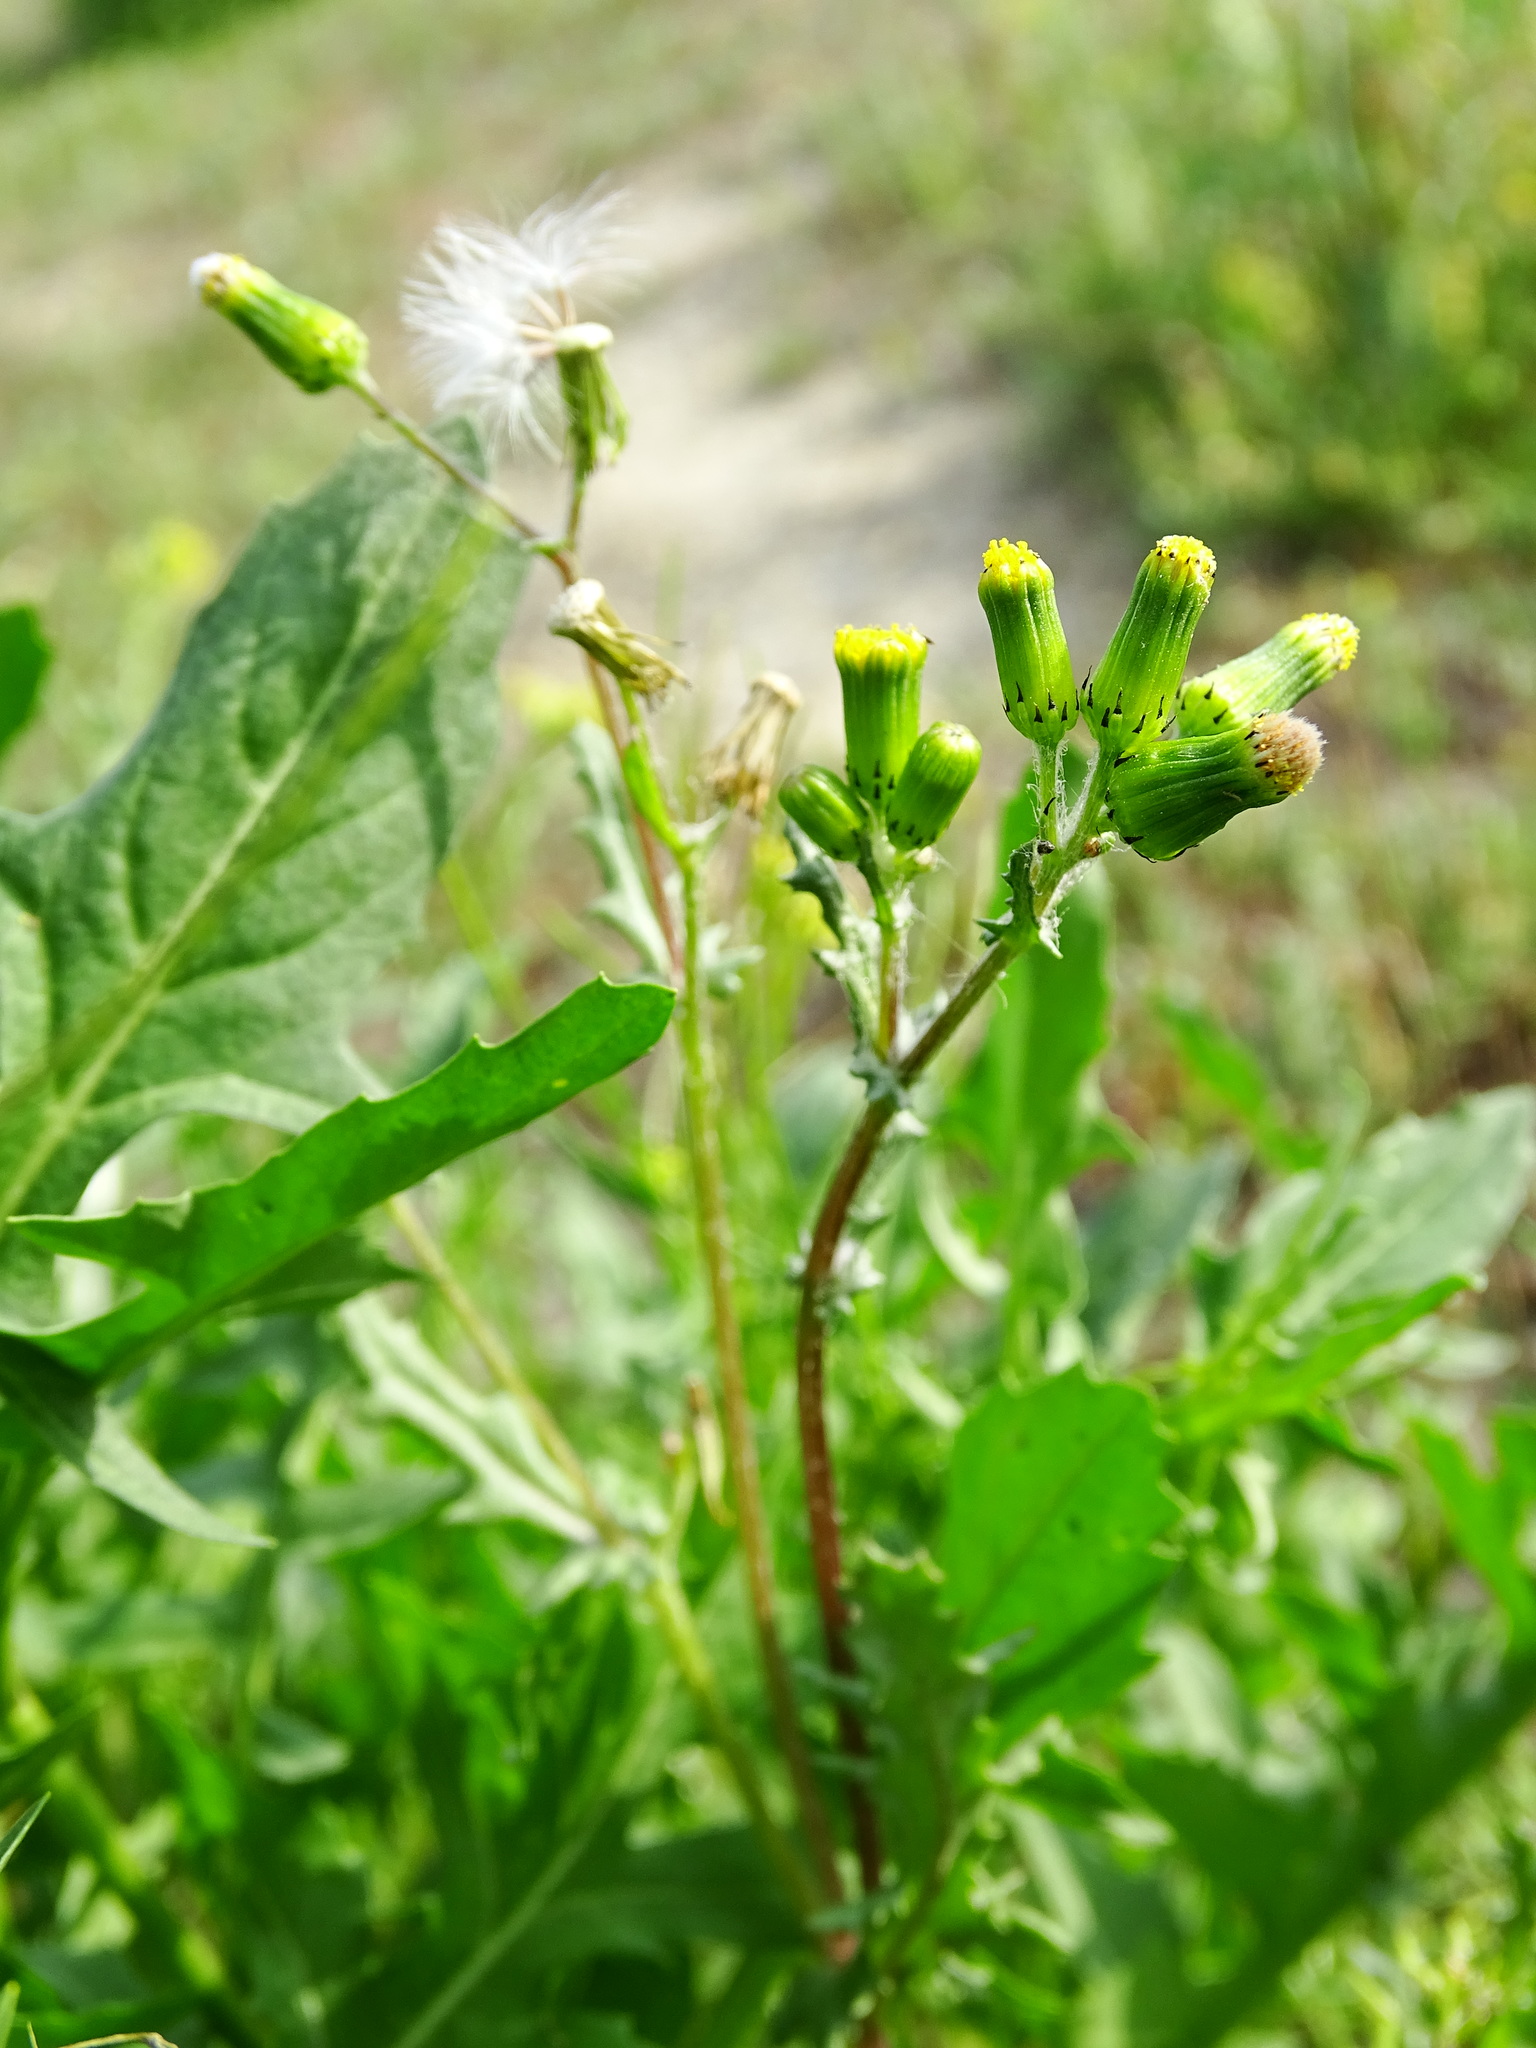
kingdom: Plantae
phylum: Tracheophyta
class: Magnoliopsida
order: Asterales
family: Asteraceae
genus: Senecio
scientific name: Senecio vulgaris
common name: Old-man-in-the-spring
